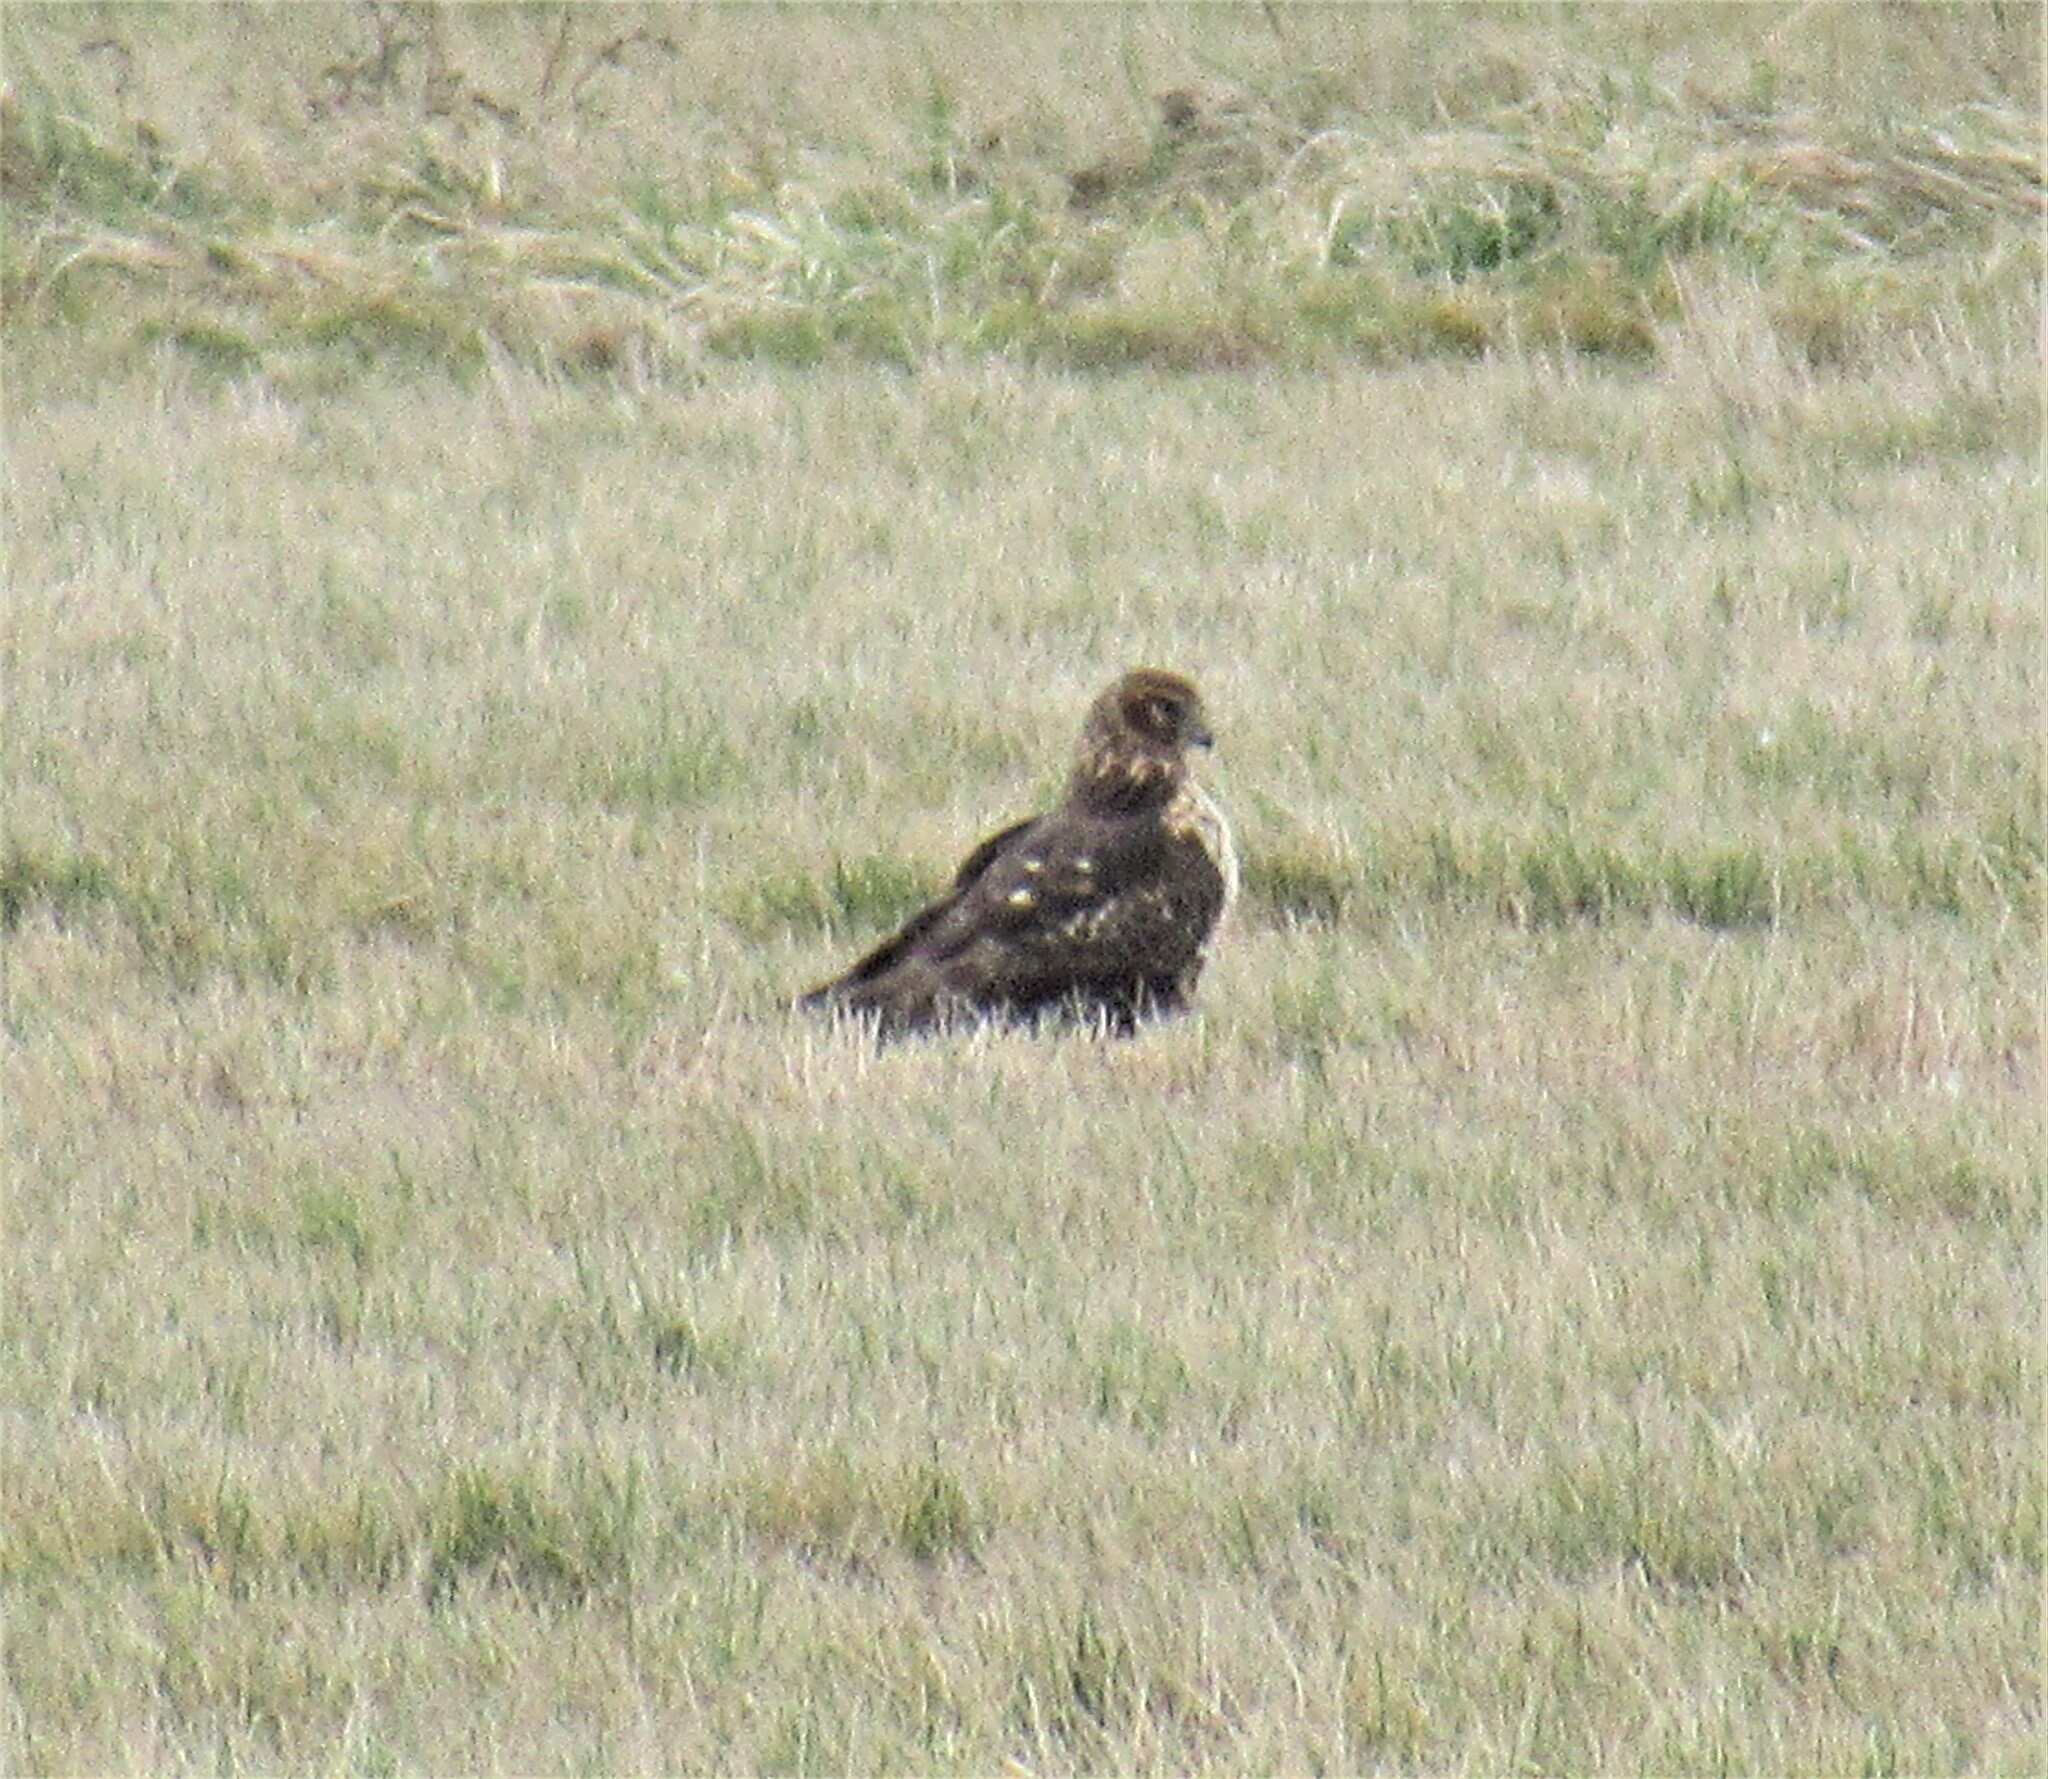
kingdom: Animalia
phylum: Chordata
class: Aves
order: Accipitriformes
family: Accipitridae
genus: Circus
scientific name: Circus cyaneus
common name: Hen harrier
